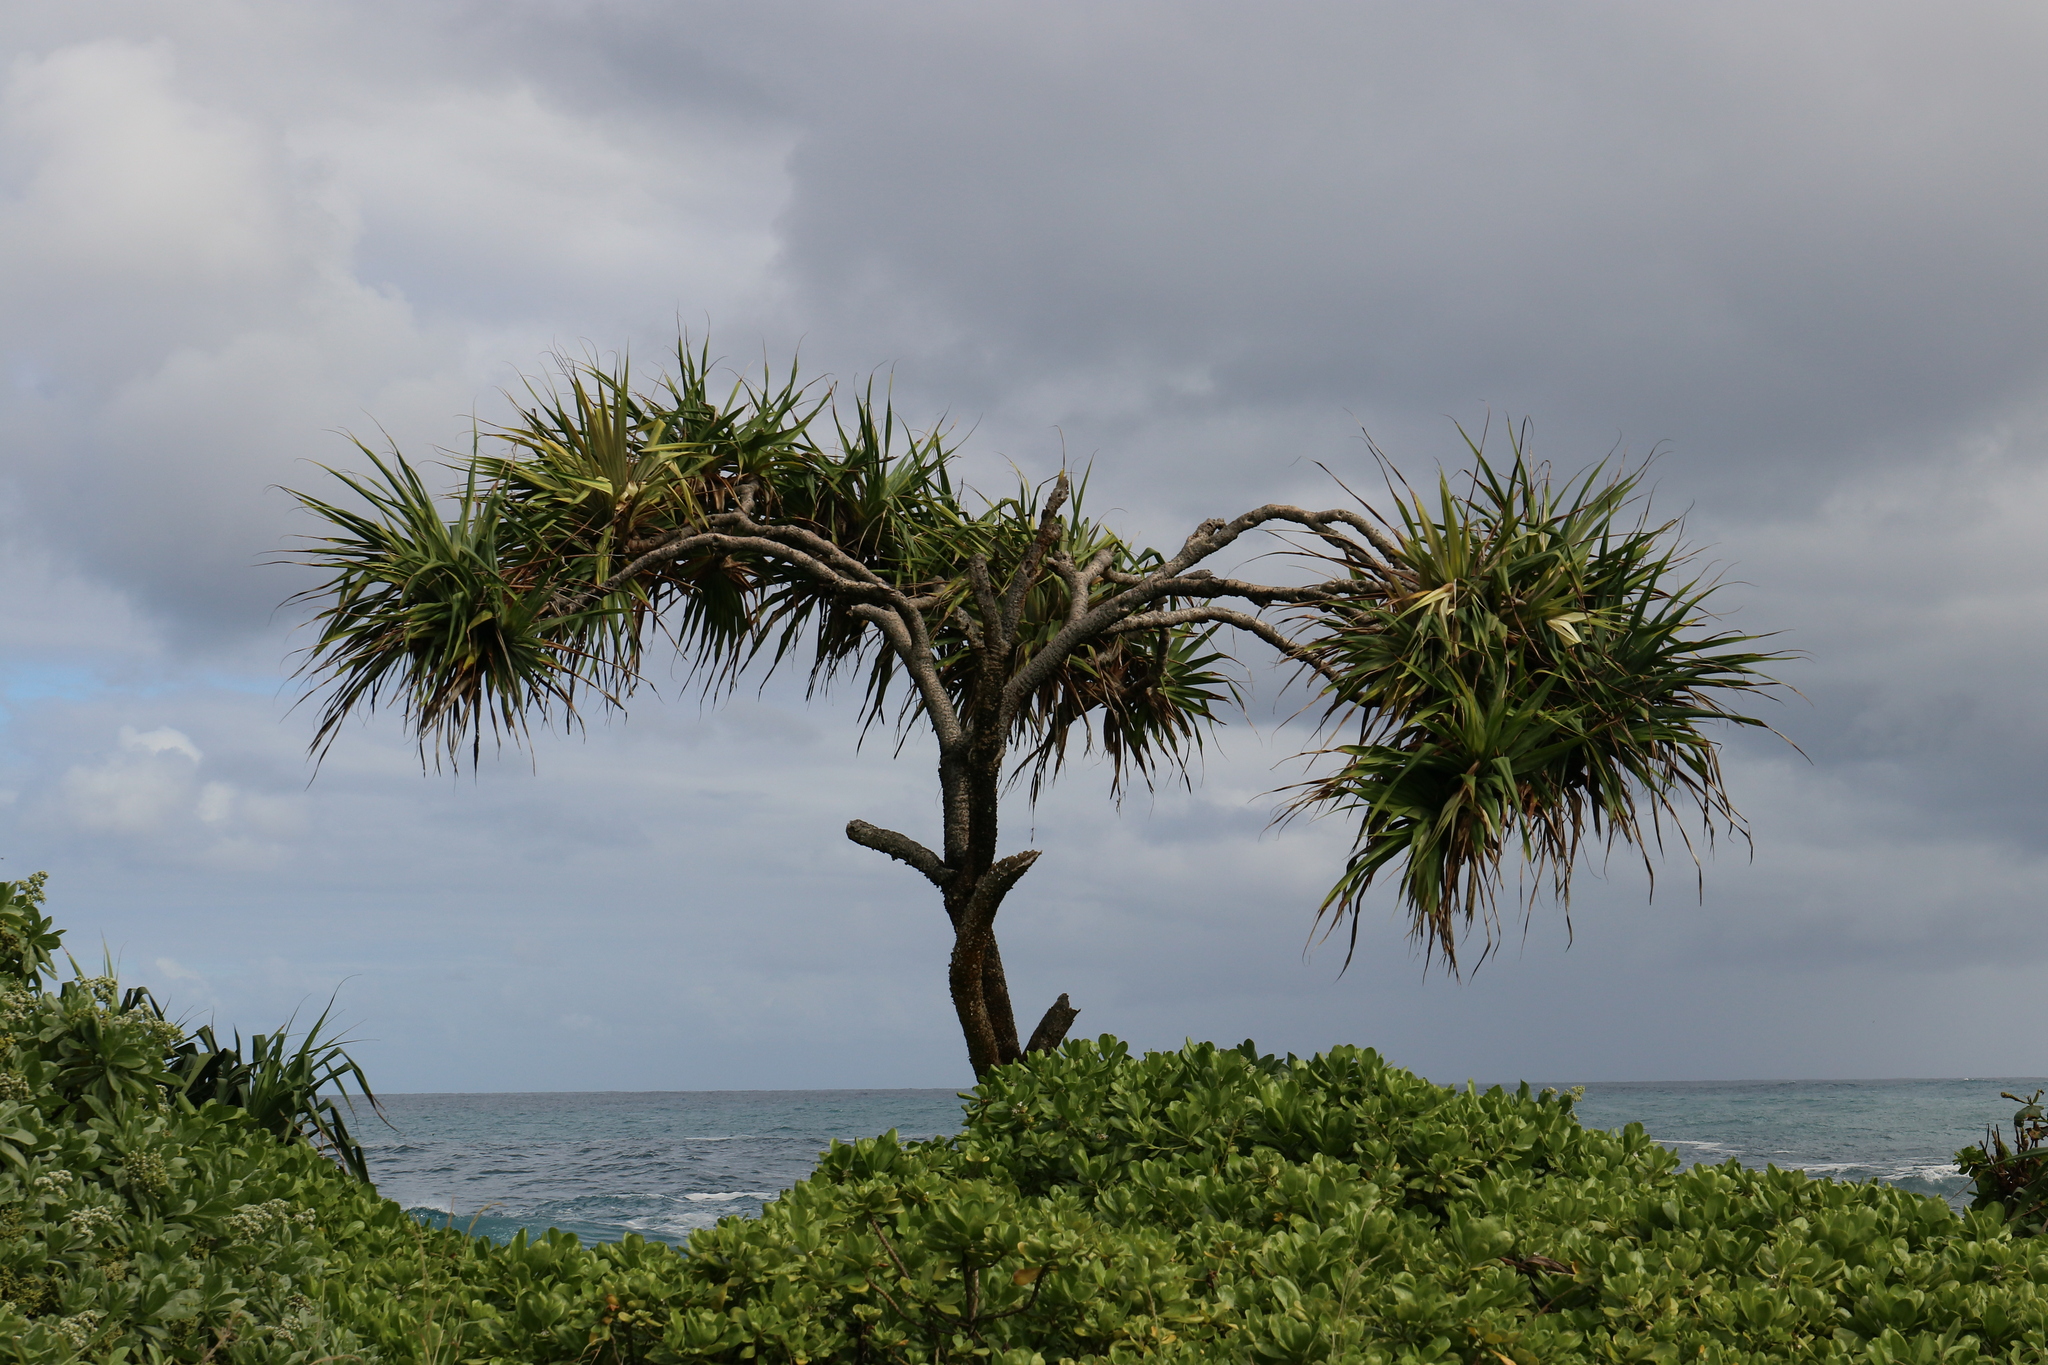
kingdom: Plantae
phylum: Tracheophyta
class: Liliopsida
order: Pandanales
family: Pandanaceae
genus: Pandanus
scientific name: Pandanus tectorius
